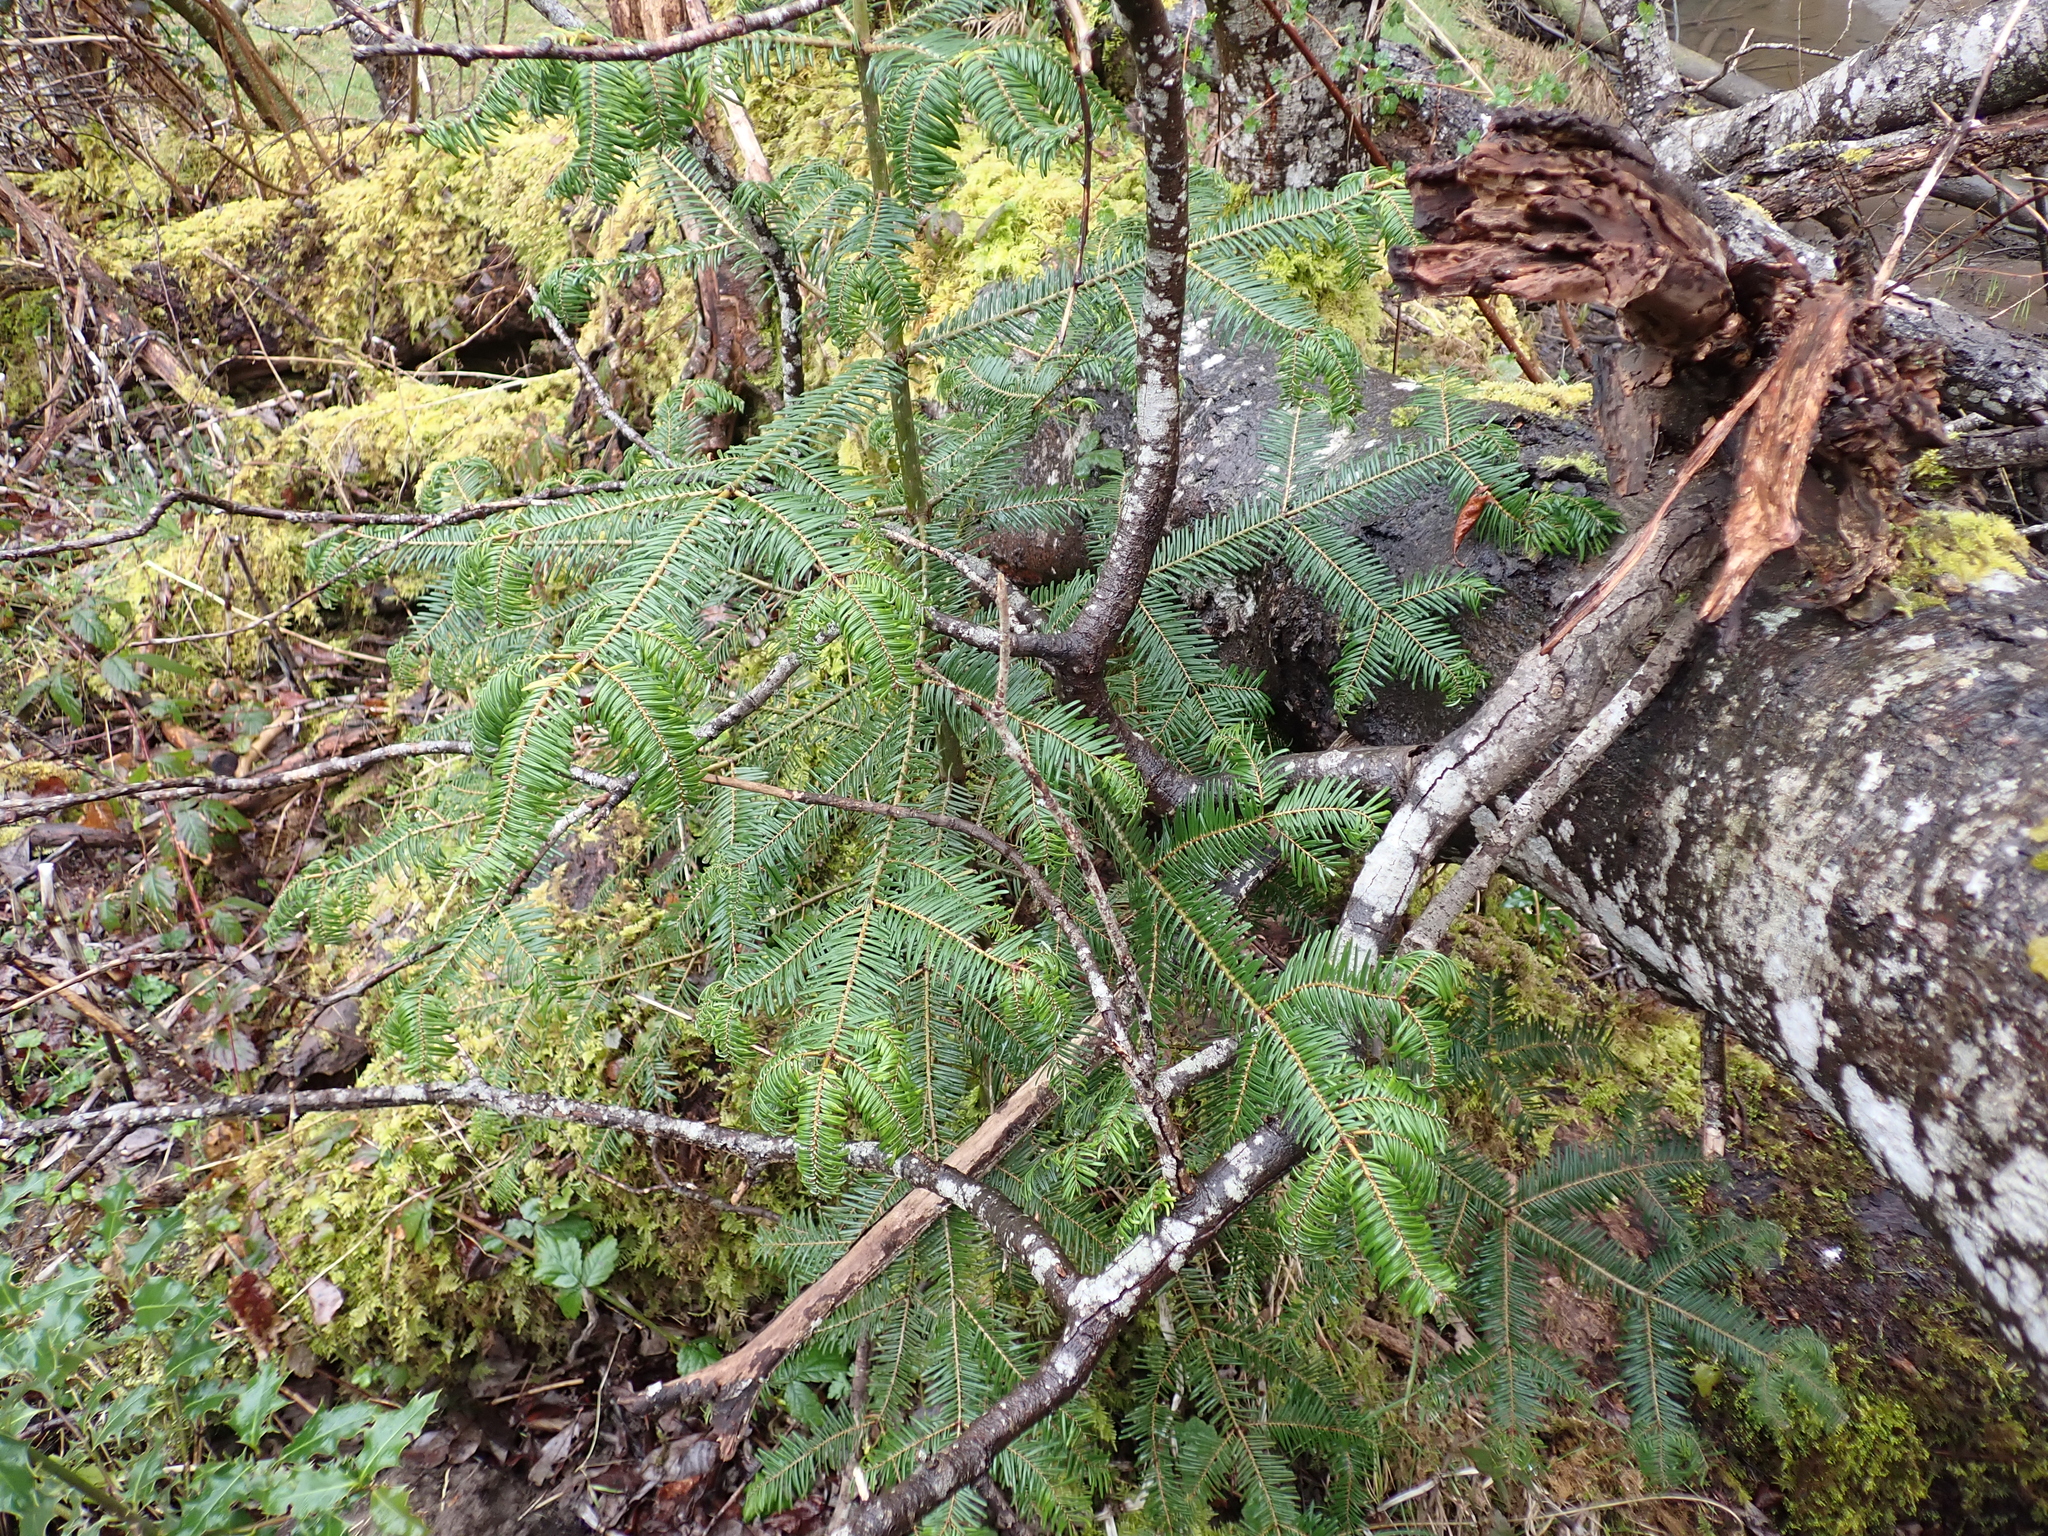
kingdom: Plantae
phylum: Tracheophyta
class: Pinopsida
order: Pinales
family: Pinaceae
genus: Abies
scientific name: Abies grandis
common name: Giant fir
